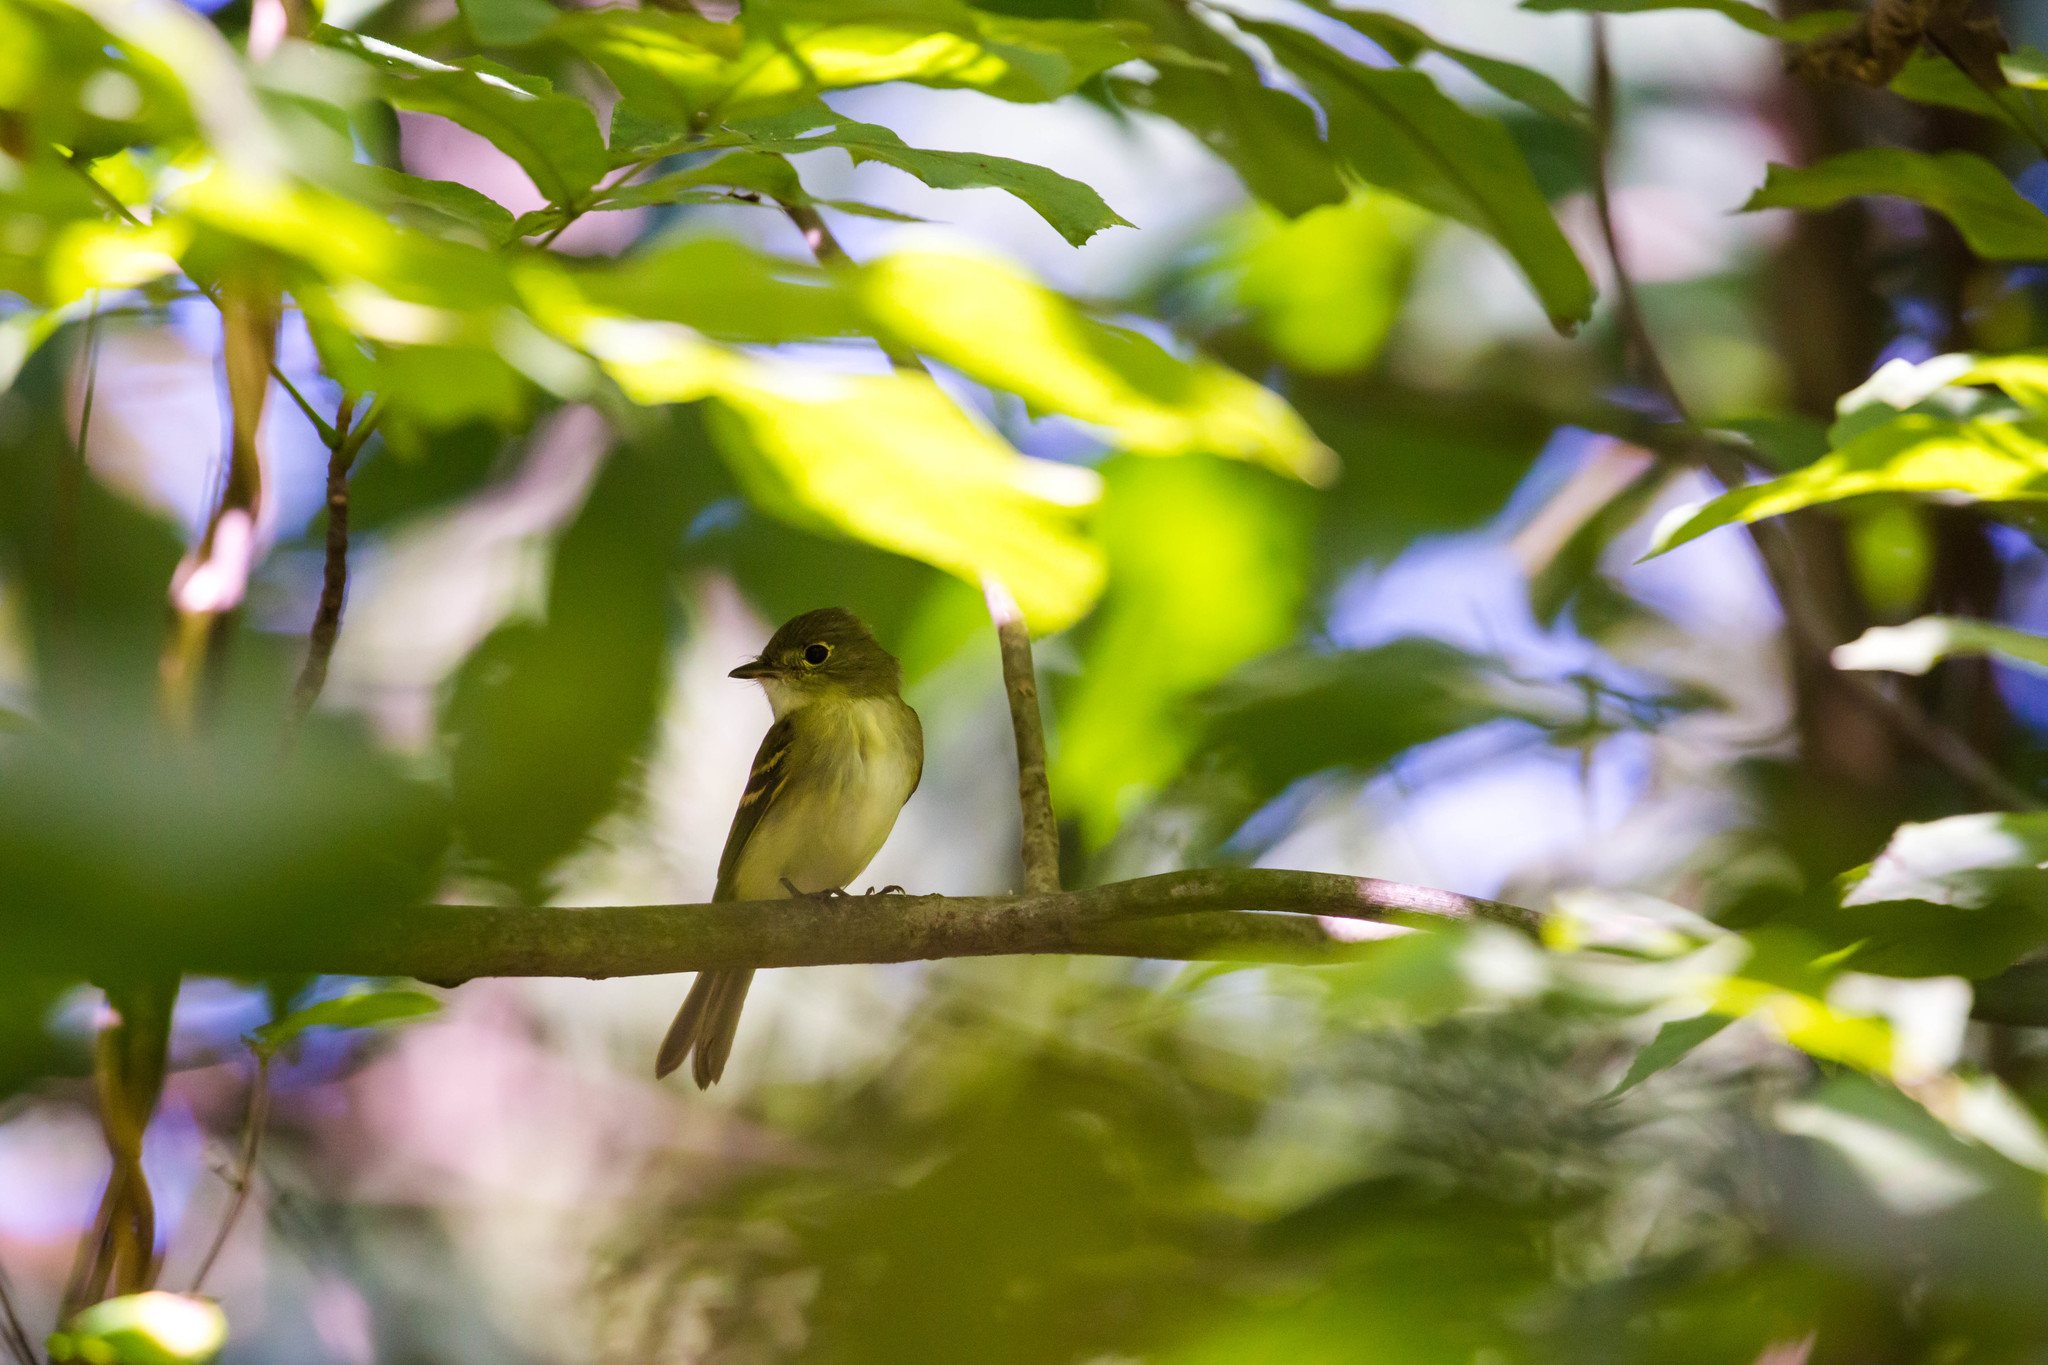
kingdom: Animalia
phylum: Chordata
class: Aves
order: Passeriformes
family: Tyrannidae
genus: Empidonax
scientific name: Empidonax virescens
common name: Acadian flycatcher
